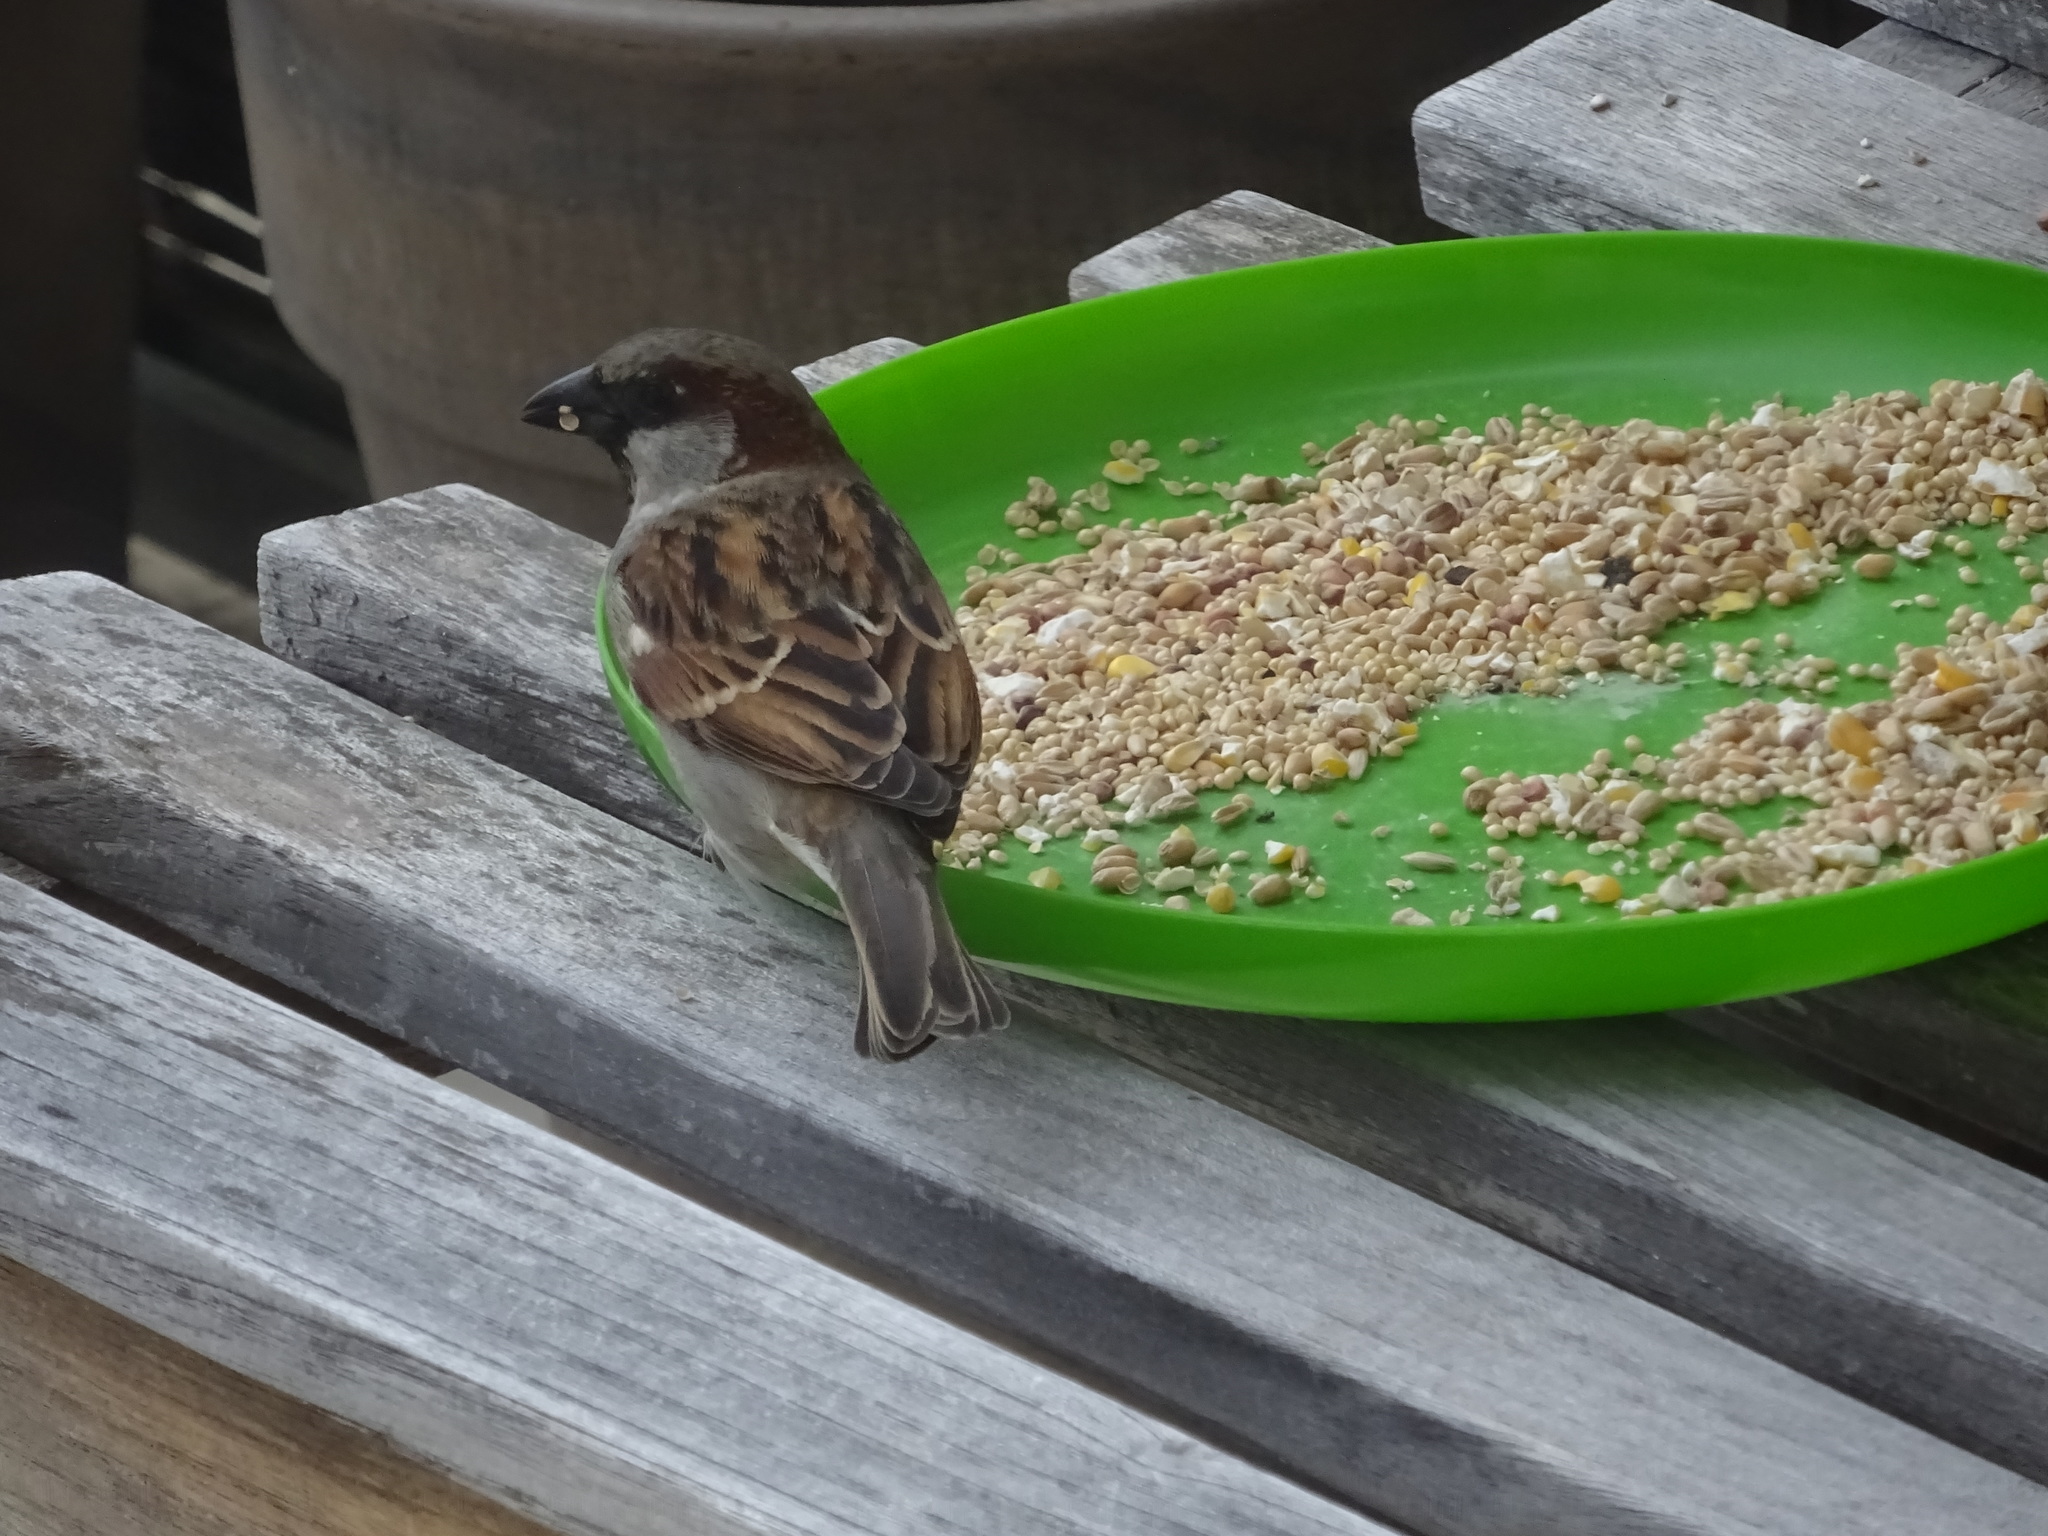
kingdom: Animalia
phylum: Chordata
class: Aves
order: Passeriformes
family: Passeridae
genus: Passer
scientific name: Passer domesticus
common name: House sparrow
